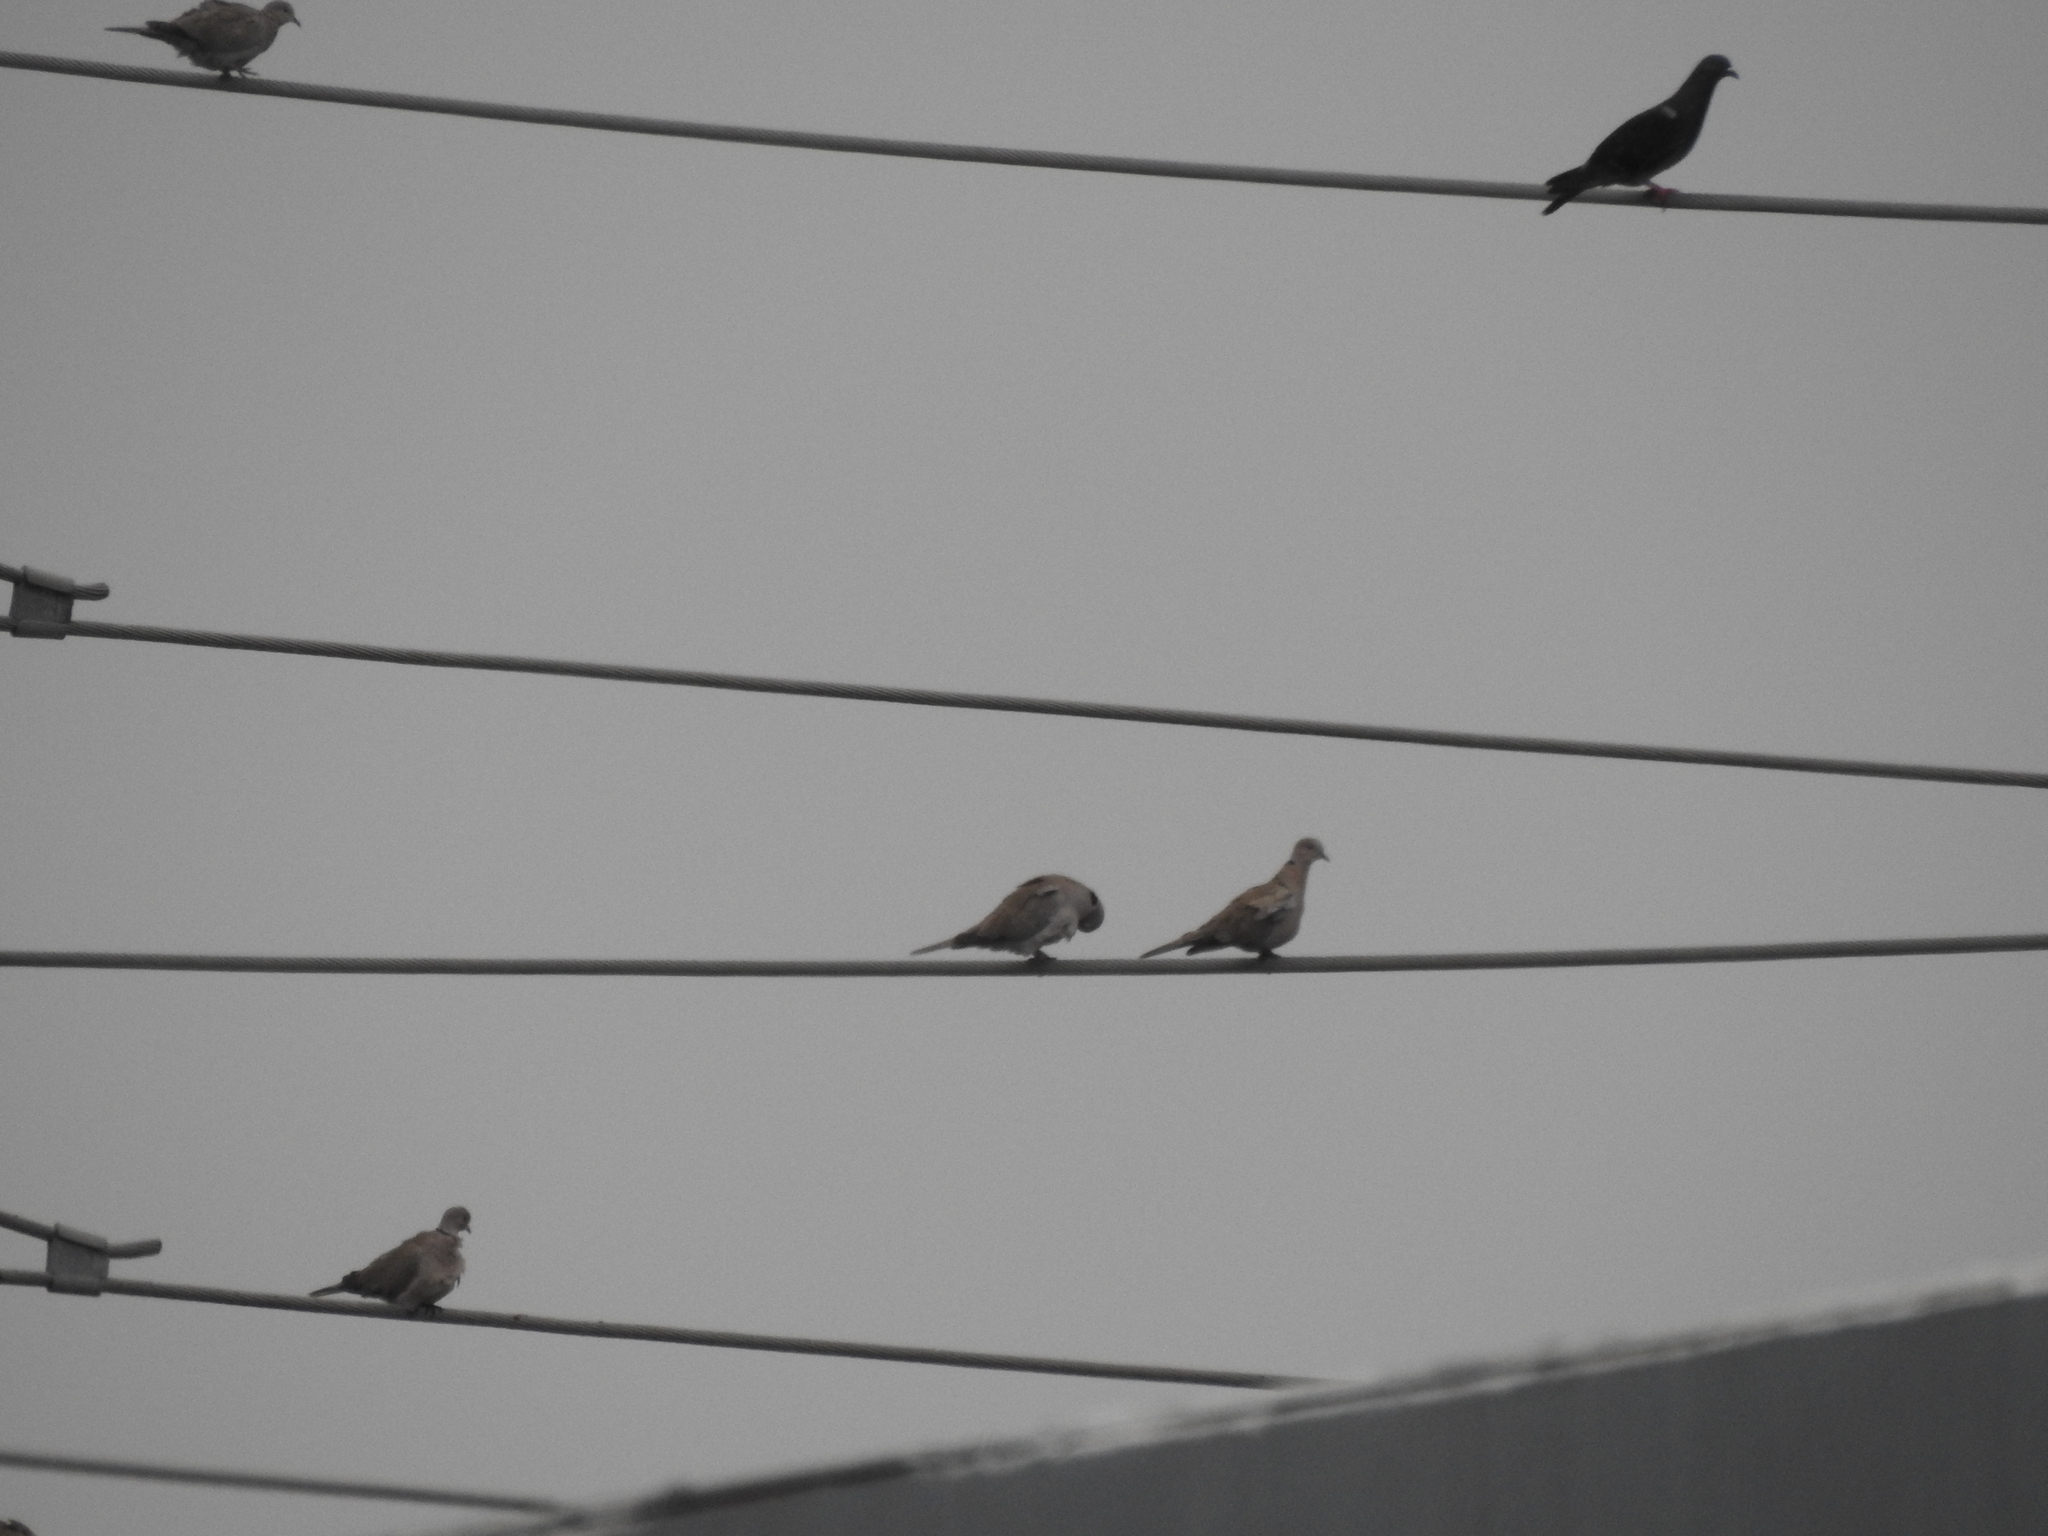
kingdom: Animalia
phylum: Chordata
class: Aves
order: Columbiformes
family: Columbidae
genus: Streptopelia
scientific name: Streptopelia decaocto
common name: Eurasian collared dove
